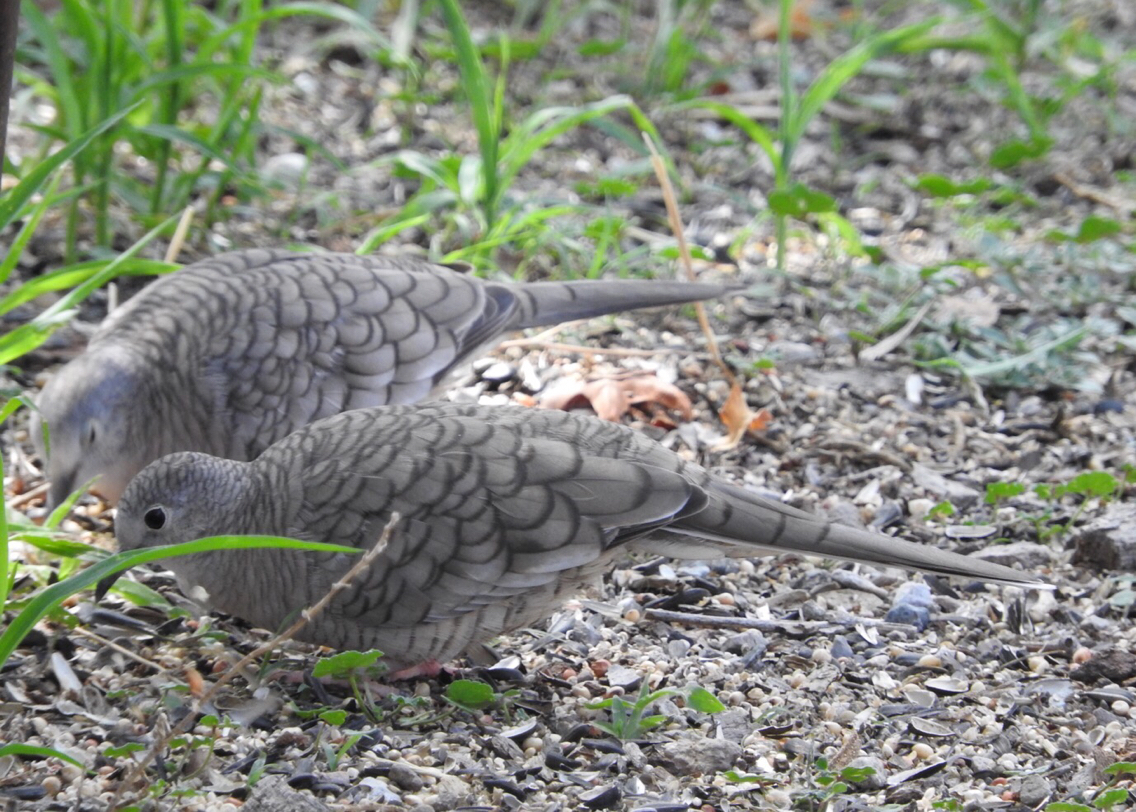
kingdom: Animalia
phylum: Chordata
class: Aves
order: Columbiformes
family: Columbidae
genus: Columbina
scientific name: Columbina inca
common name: Inca dove
